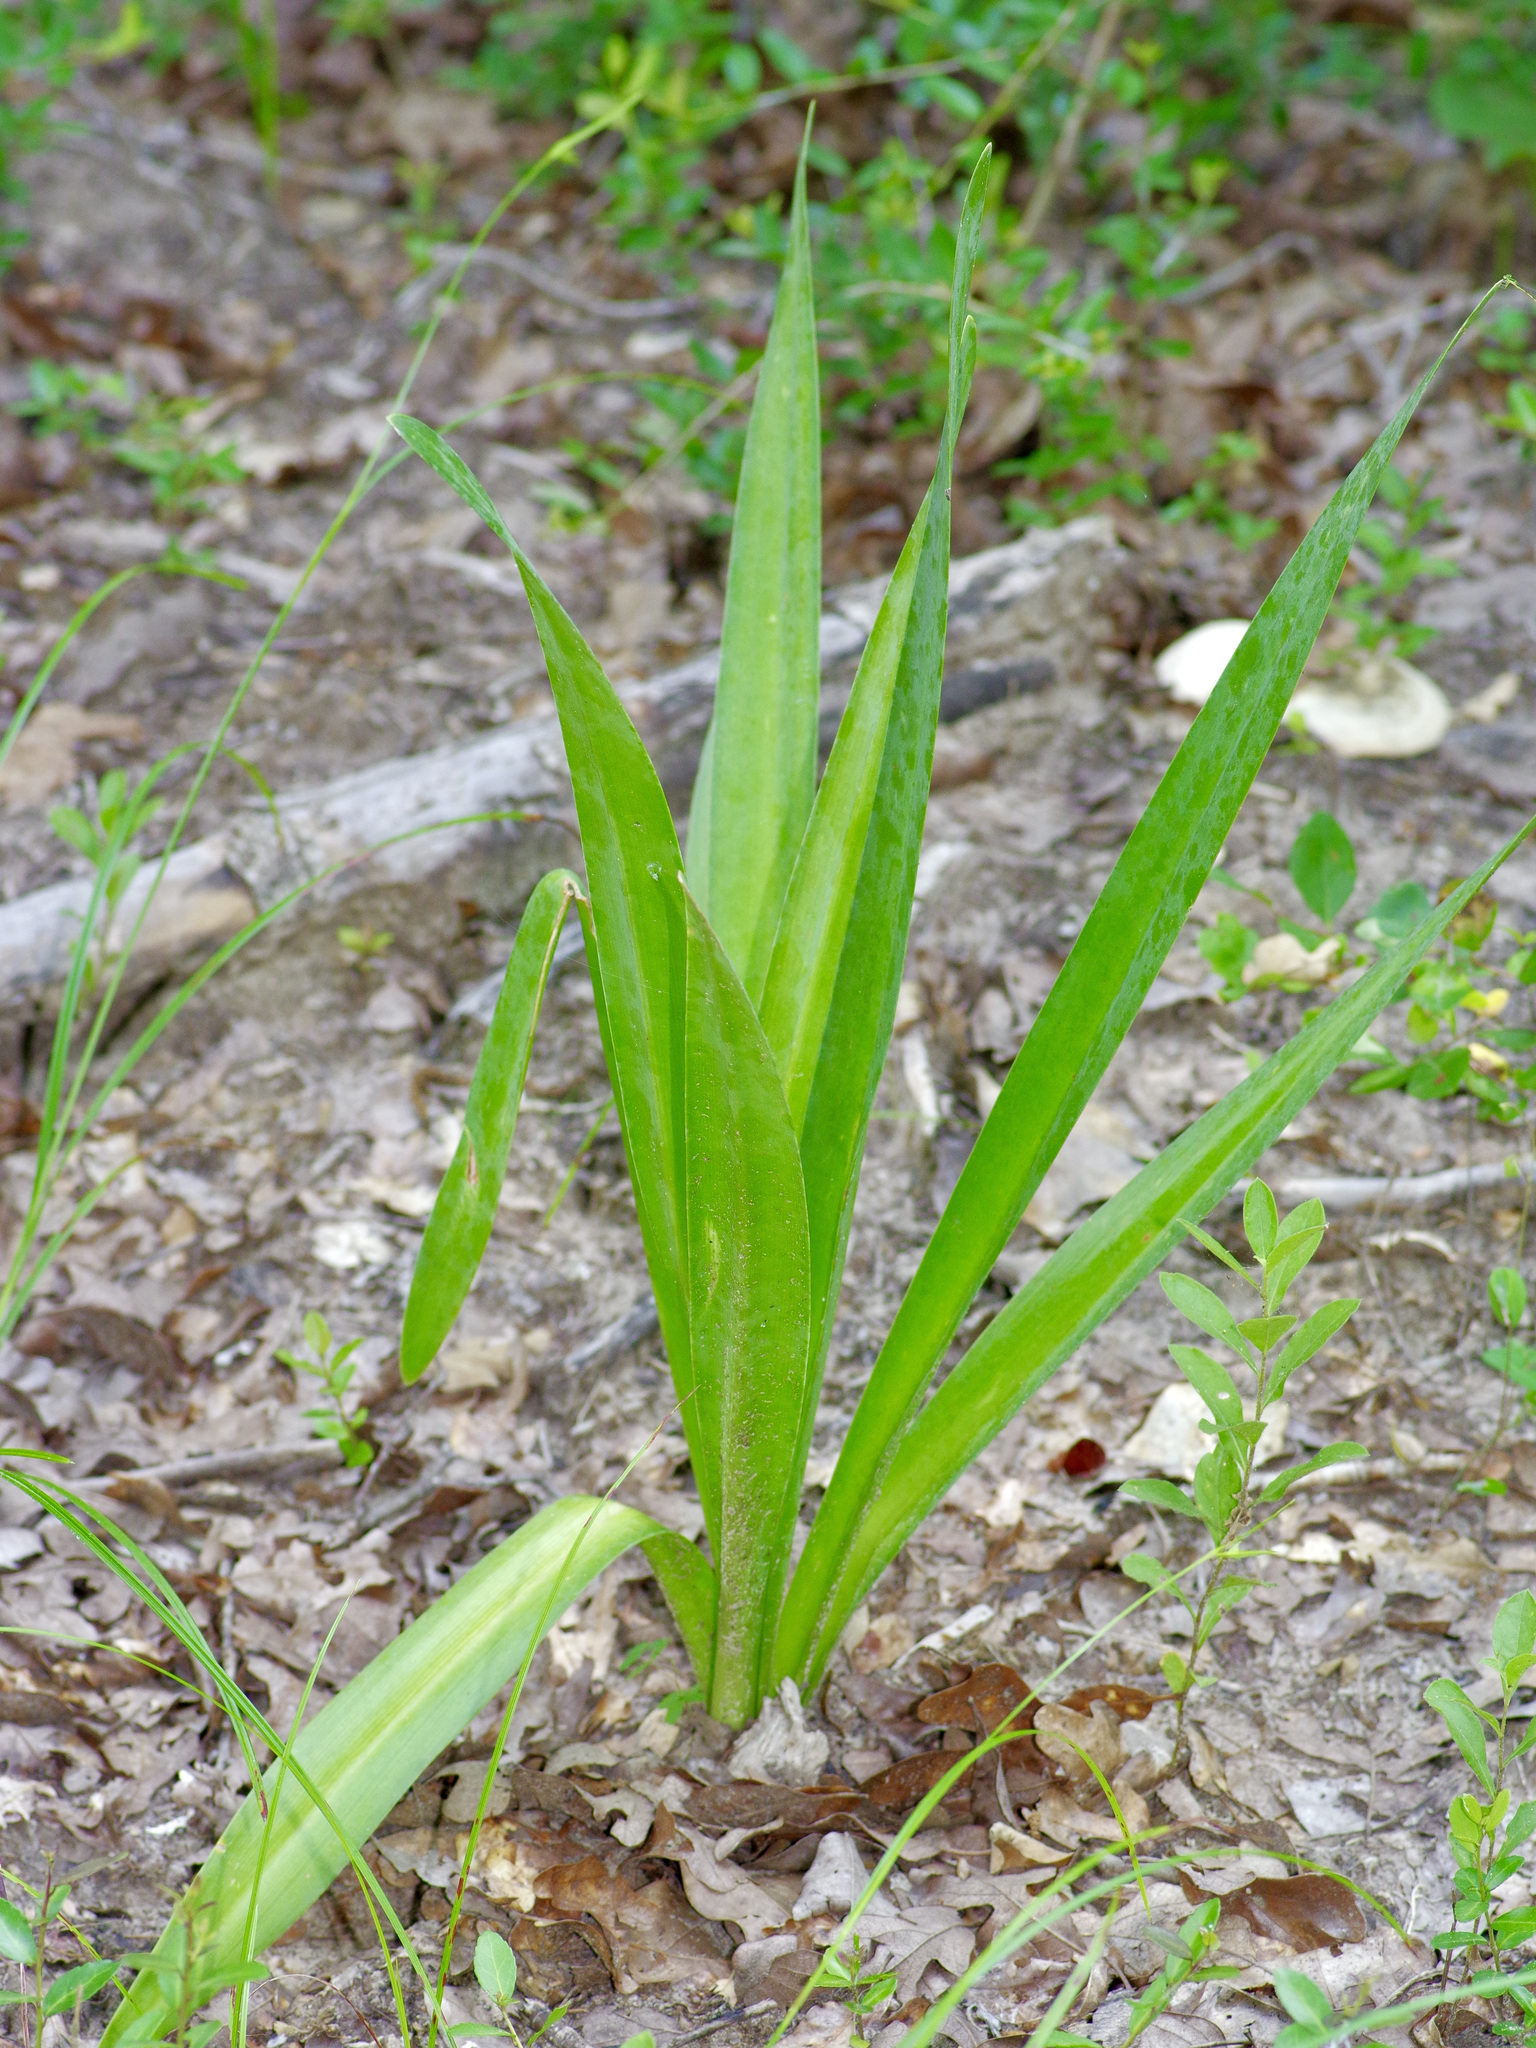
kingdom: Plantae
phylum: Tracheophyta
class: Liliopsida
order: Asparagales
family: Amaryllidaceae
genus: Hymenocallis
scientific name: Hymenocallis occidentalis
